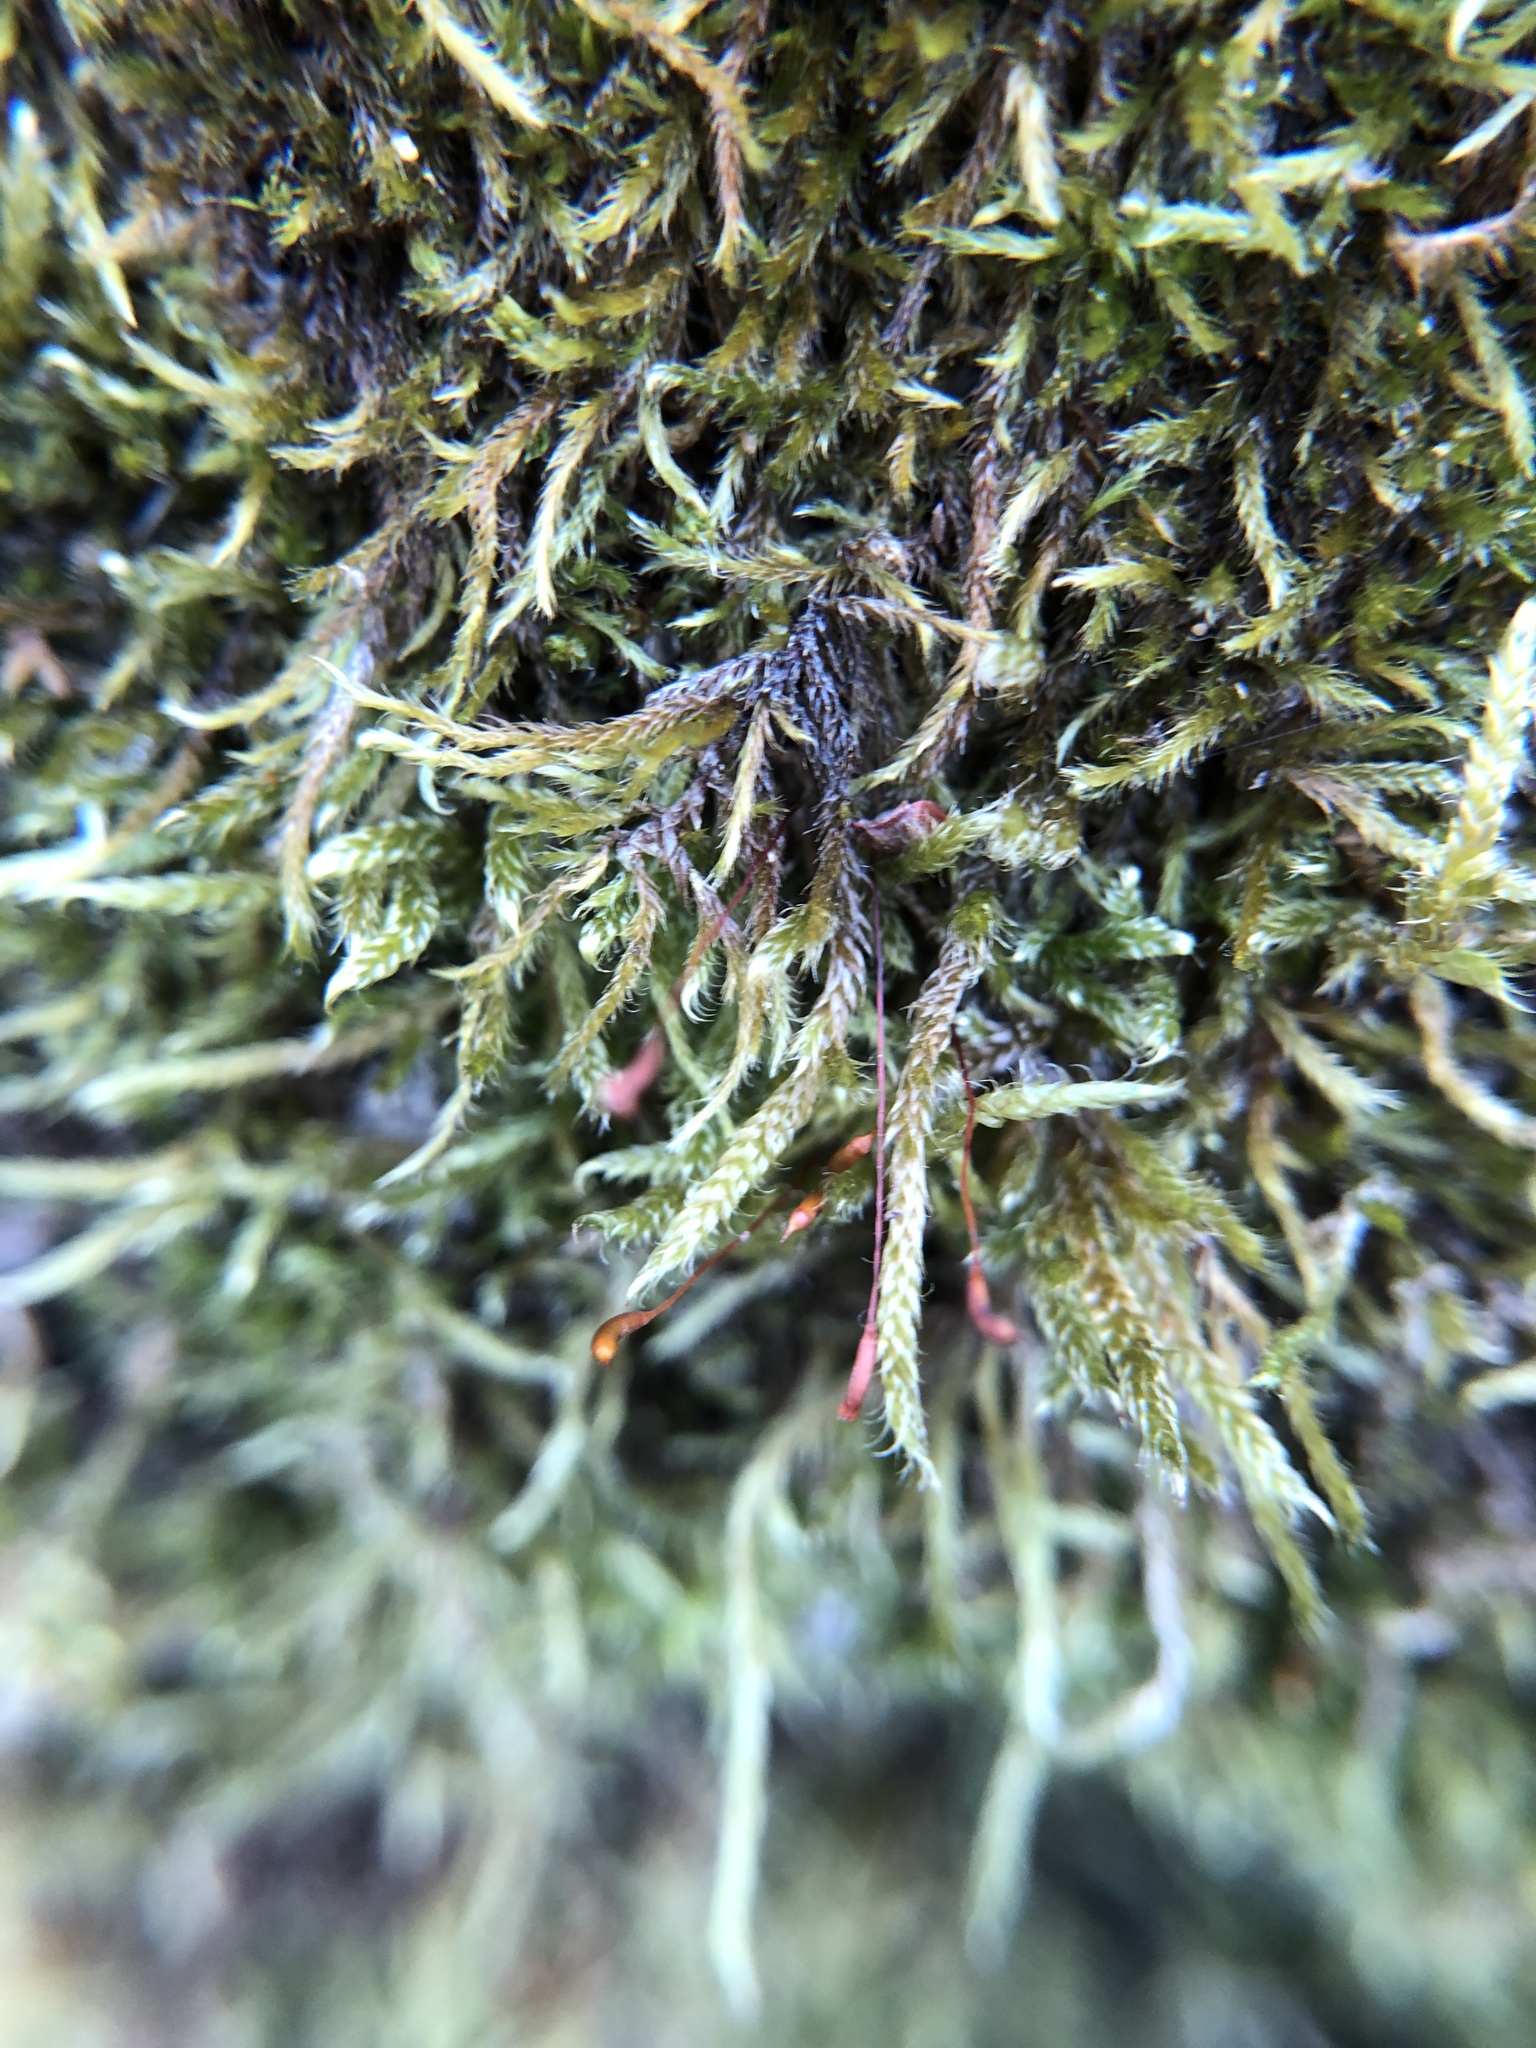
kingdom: Plantae
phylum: Bryophyta
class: Bryopsida
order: Hypnales
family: Hypnaceae
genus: Hypnum
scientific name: Hypnum cupressiforme
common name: Cypress-leaved plait-moss
